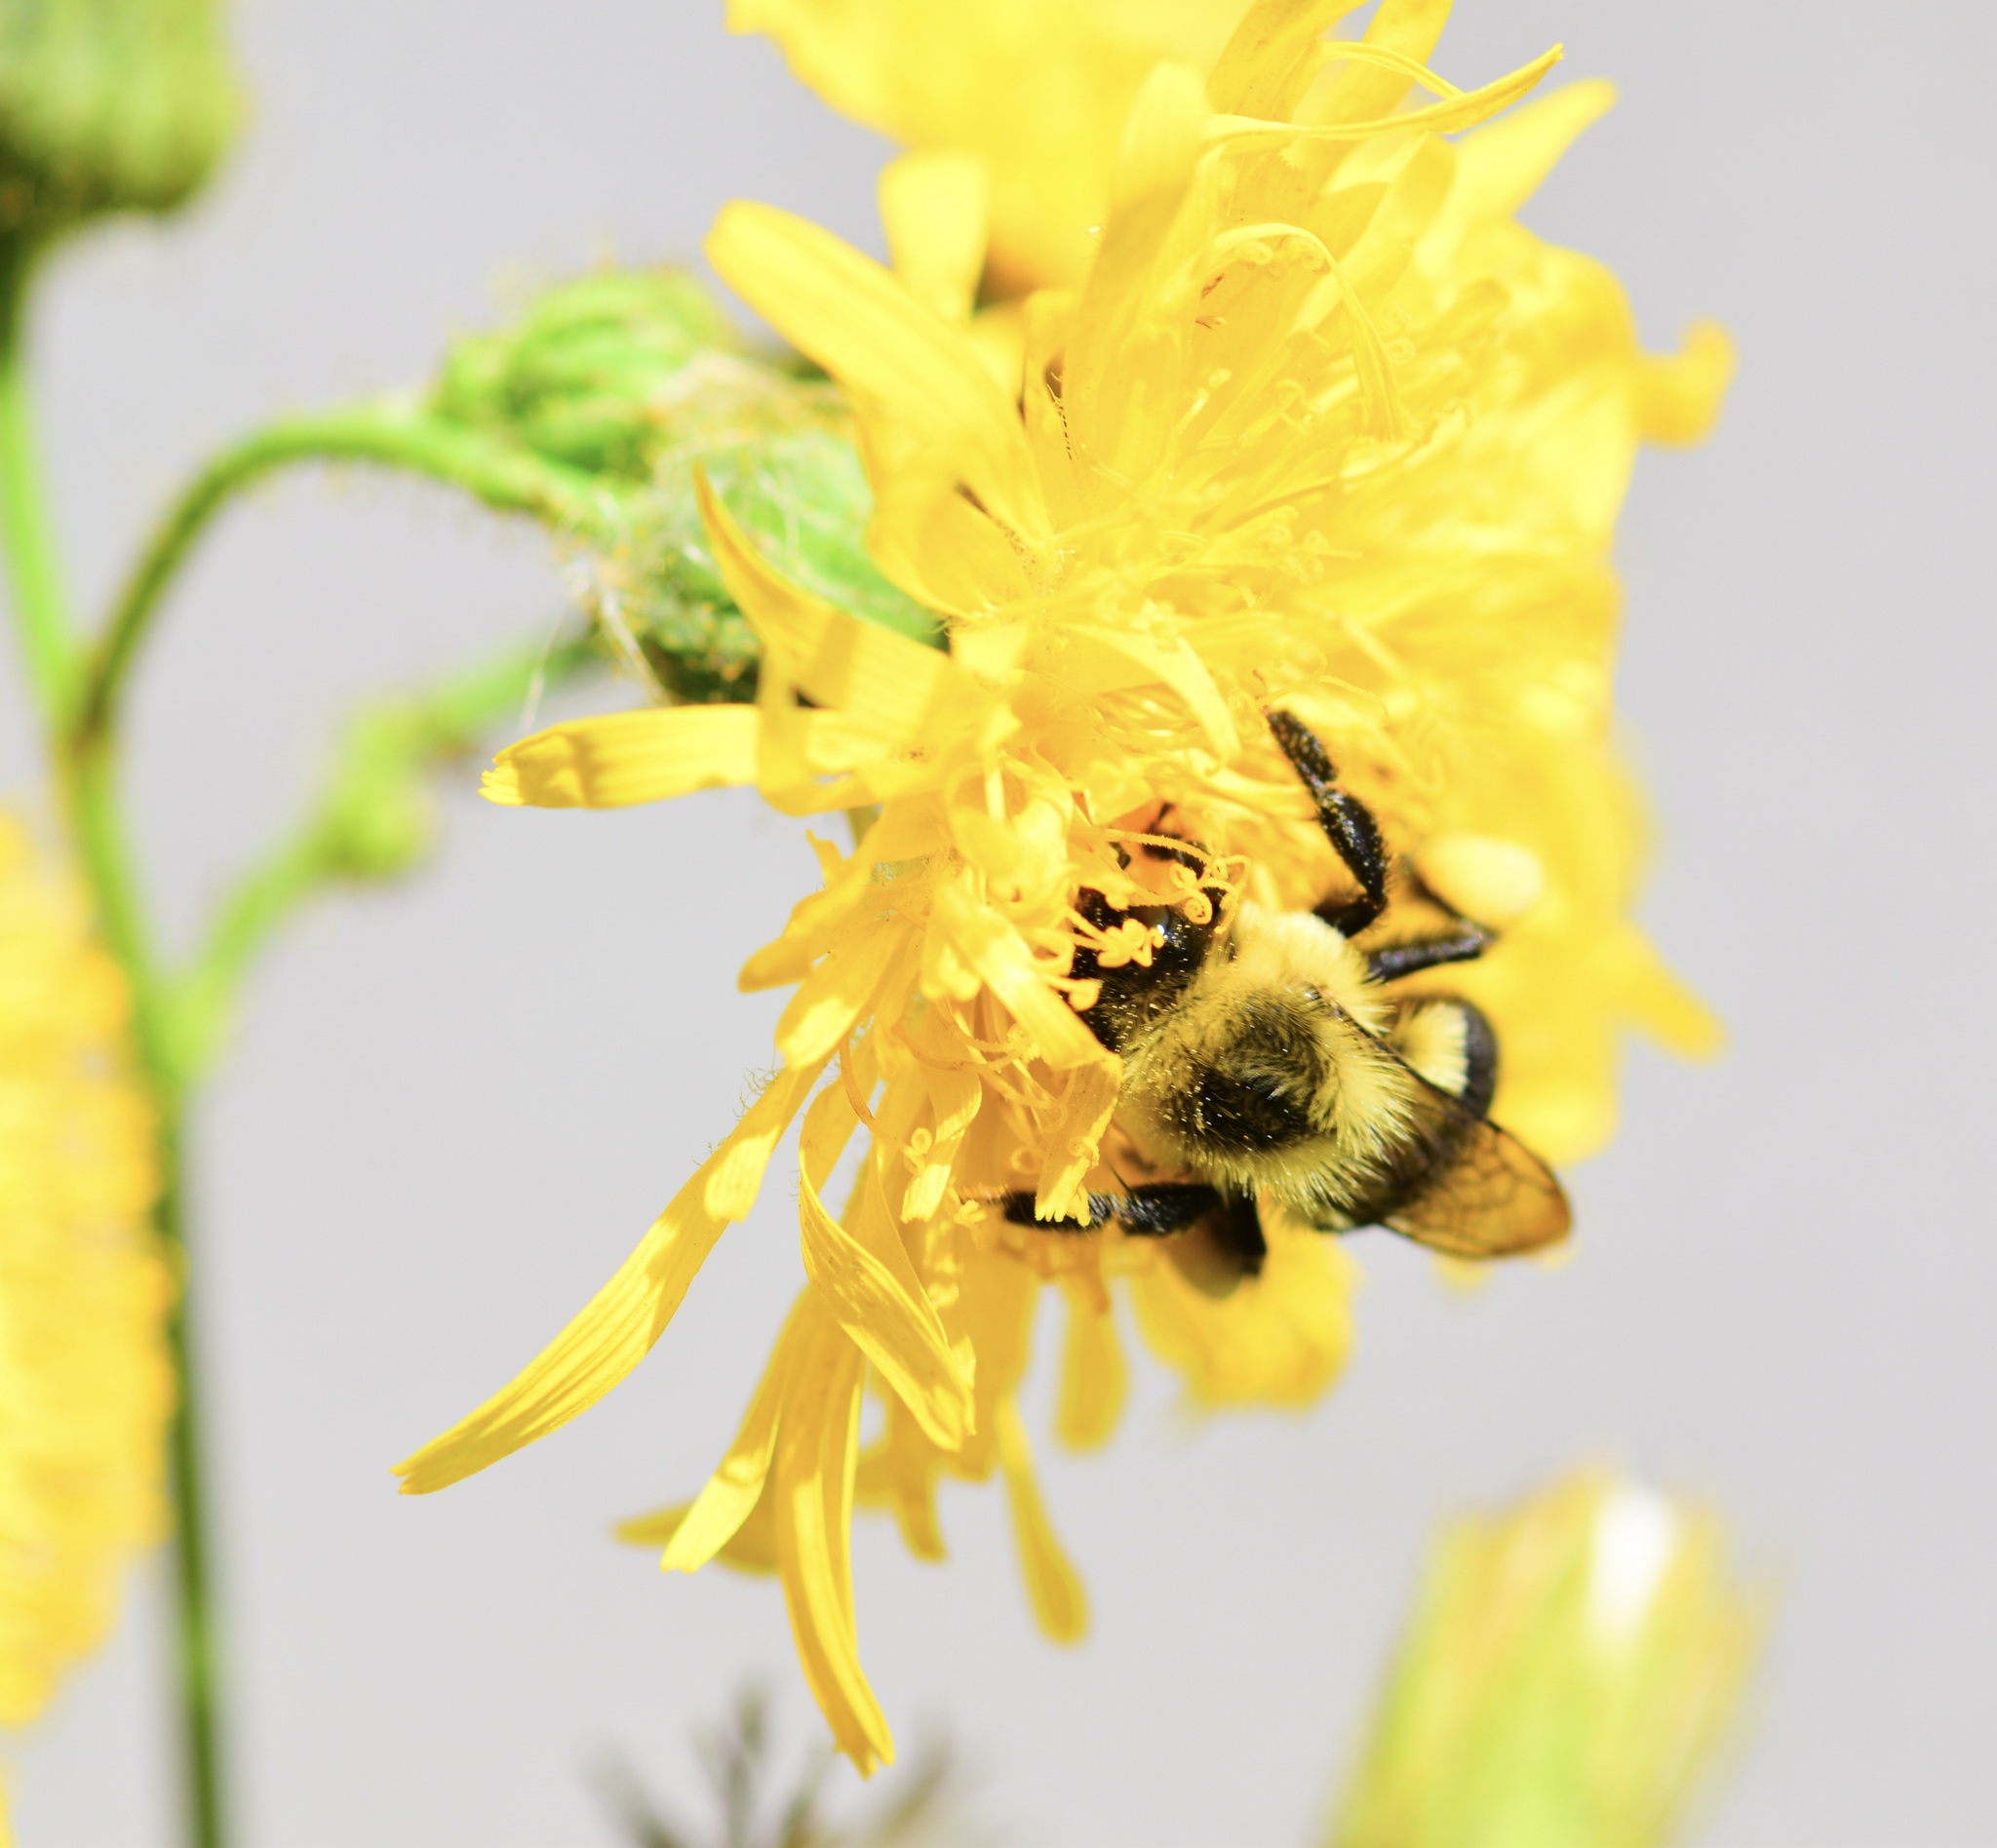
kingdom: Animalia
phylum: Arthropoda
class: Insecta
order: Hymenoptera
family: Apidae
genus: Bombus
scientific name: Bombus impatiens
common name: Common eastern bumble bee
